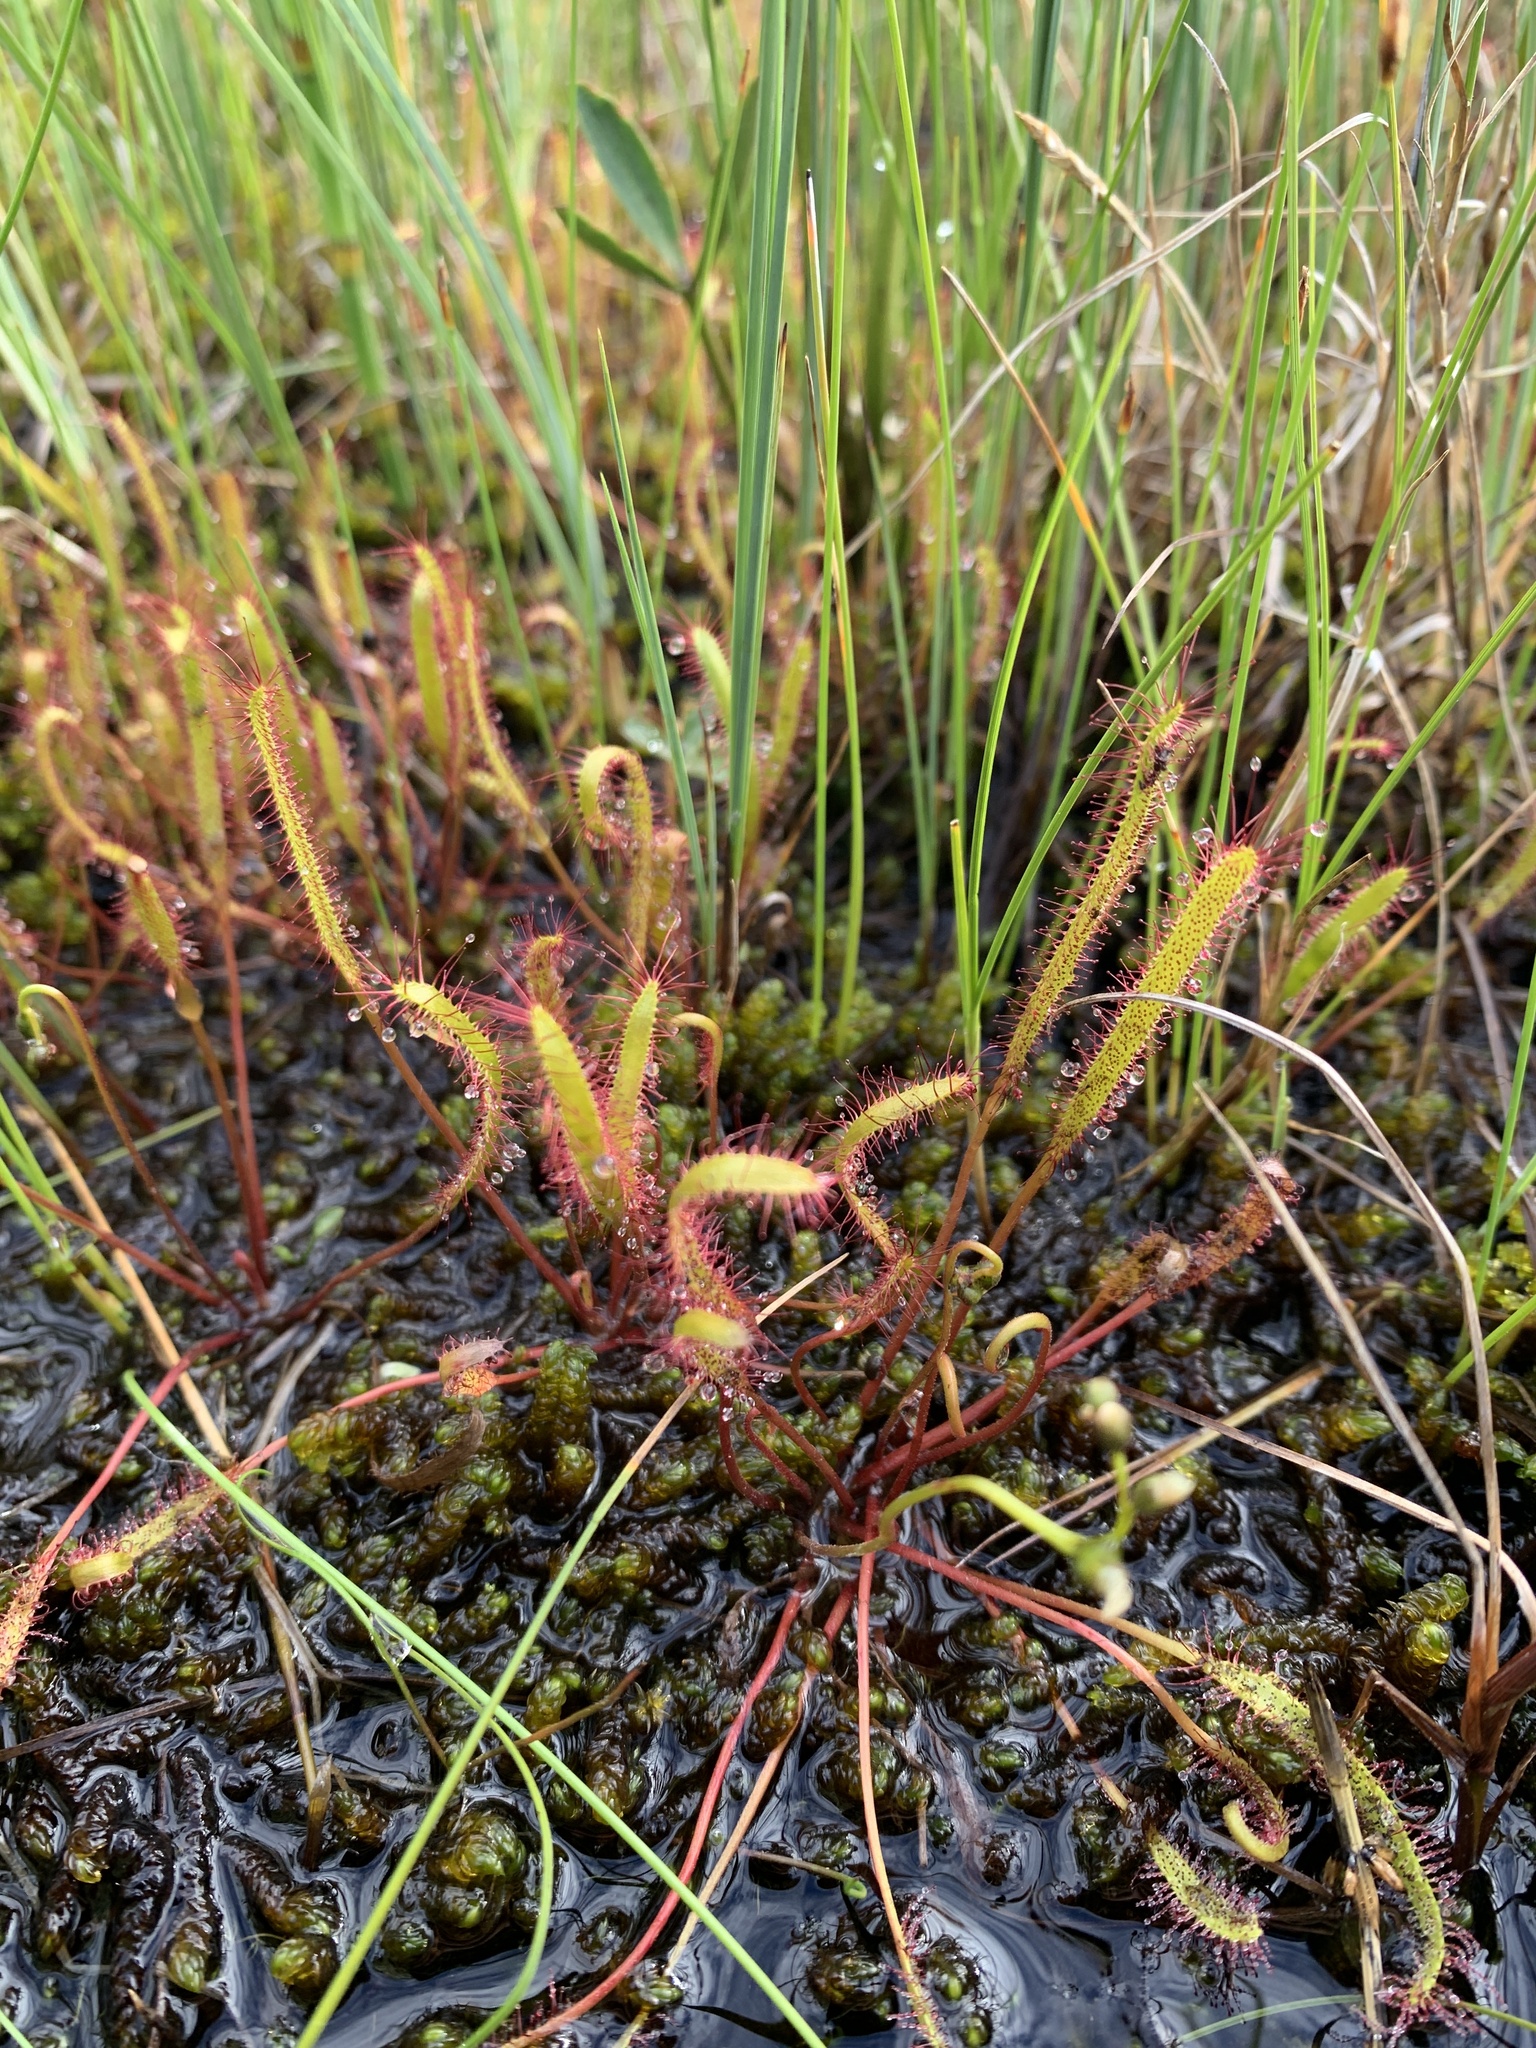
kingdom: Plantae
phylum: Tracheophyta
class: Magnoliopsida
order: Caryophyllales
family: Droseraceae
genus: Drosera
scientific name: Drosera linearis
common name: Linear-leaved sundew
